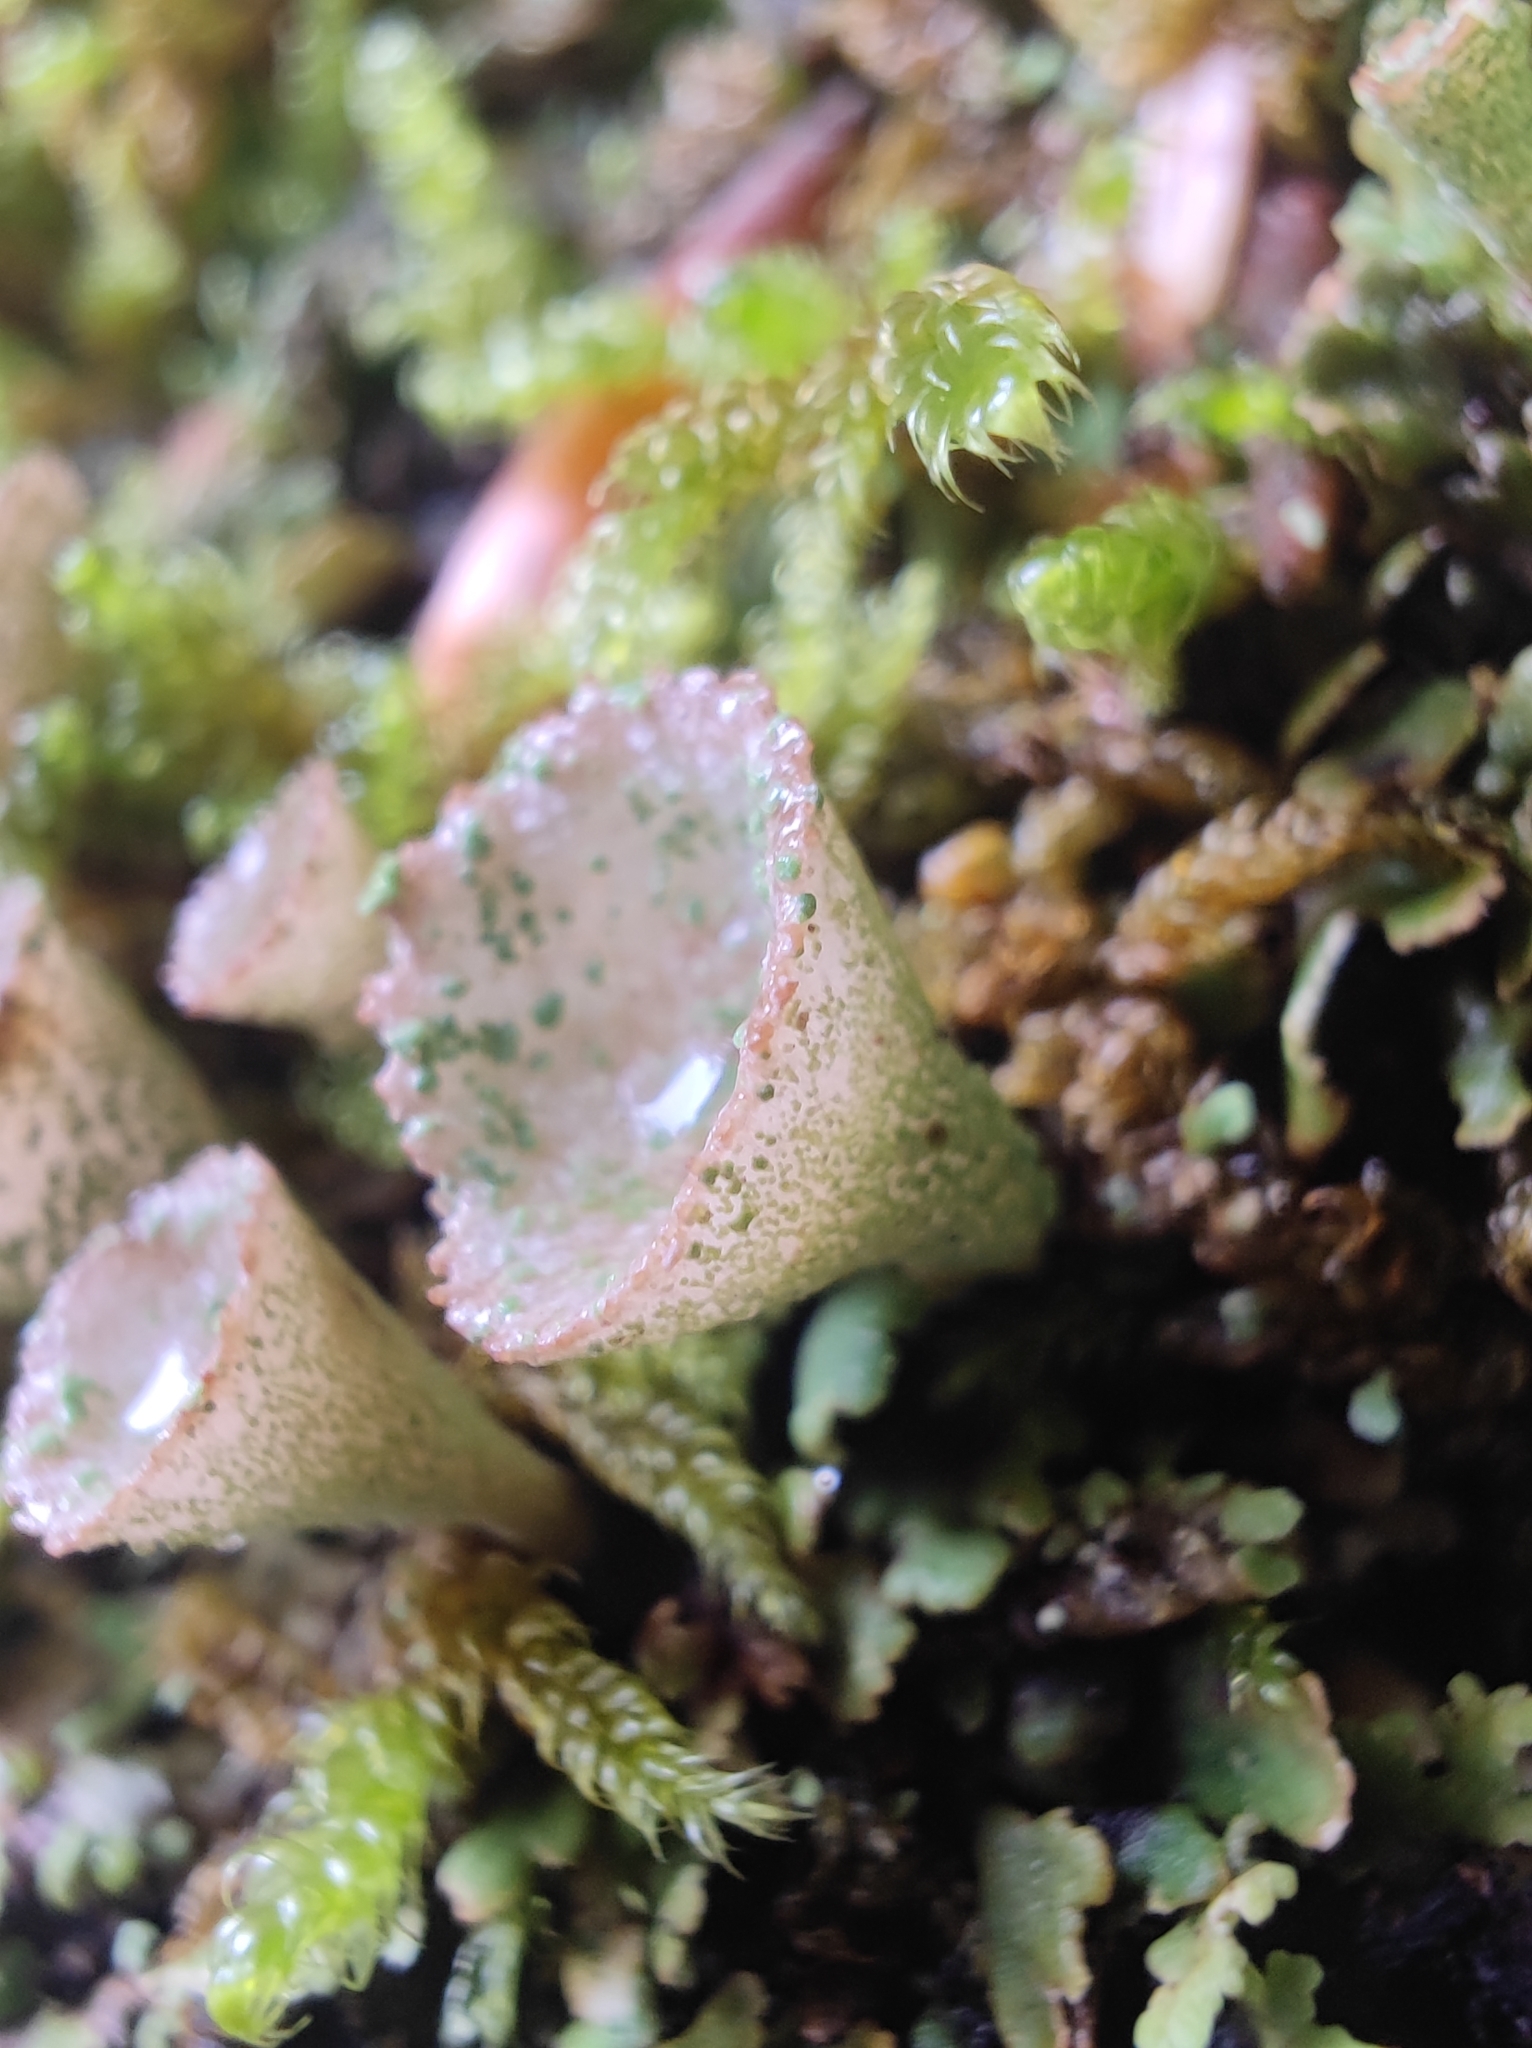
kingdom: Fungi
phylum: Ascomycota
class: Lecanoromycetes
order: Lecanorales
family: Cladoniaceae
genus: Cladonia
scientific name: Cladonia pyxidata
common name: Pebbled pixie cup
